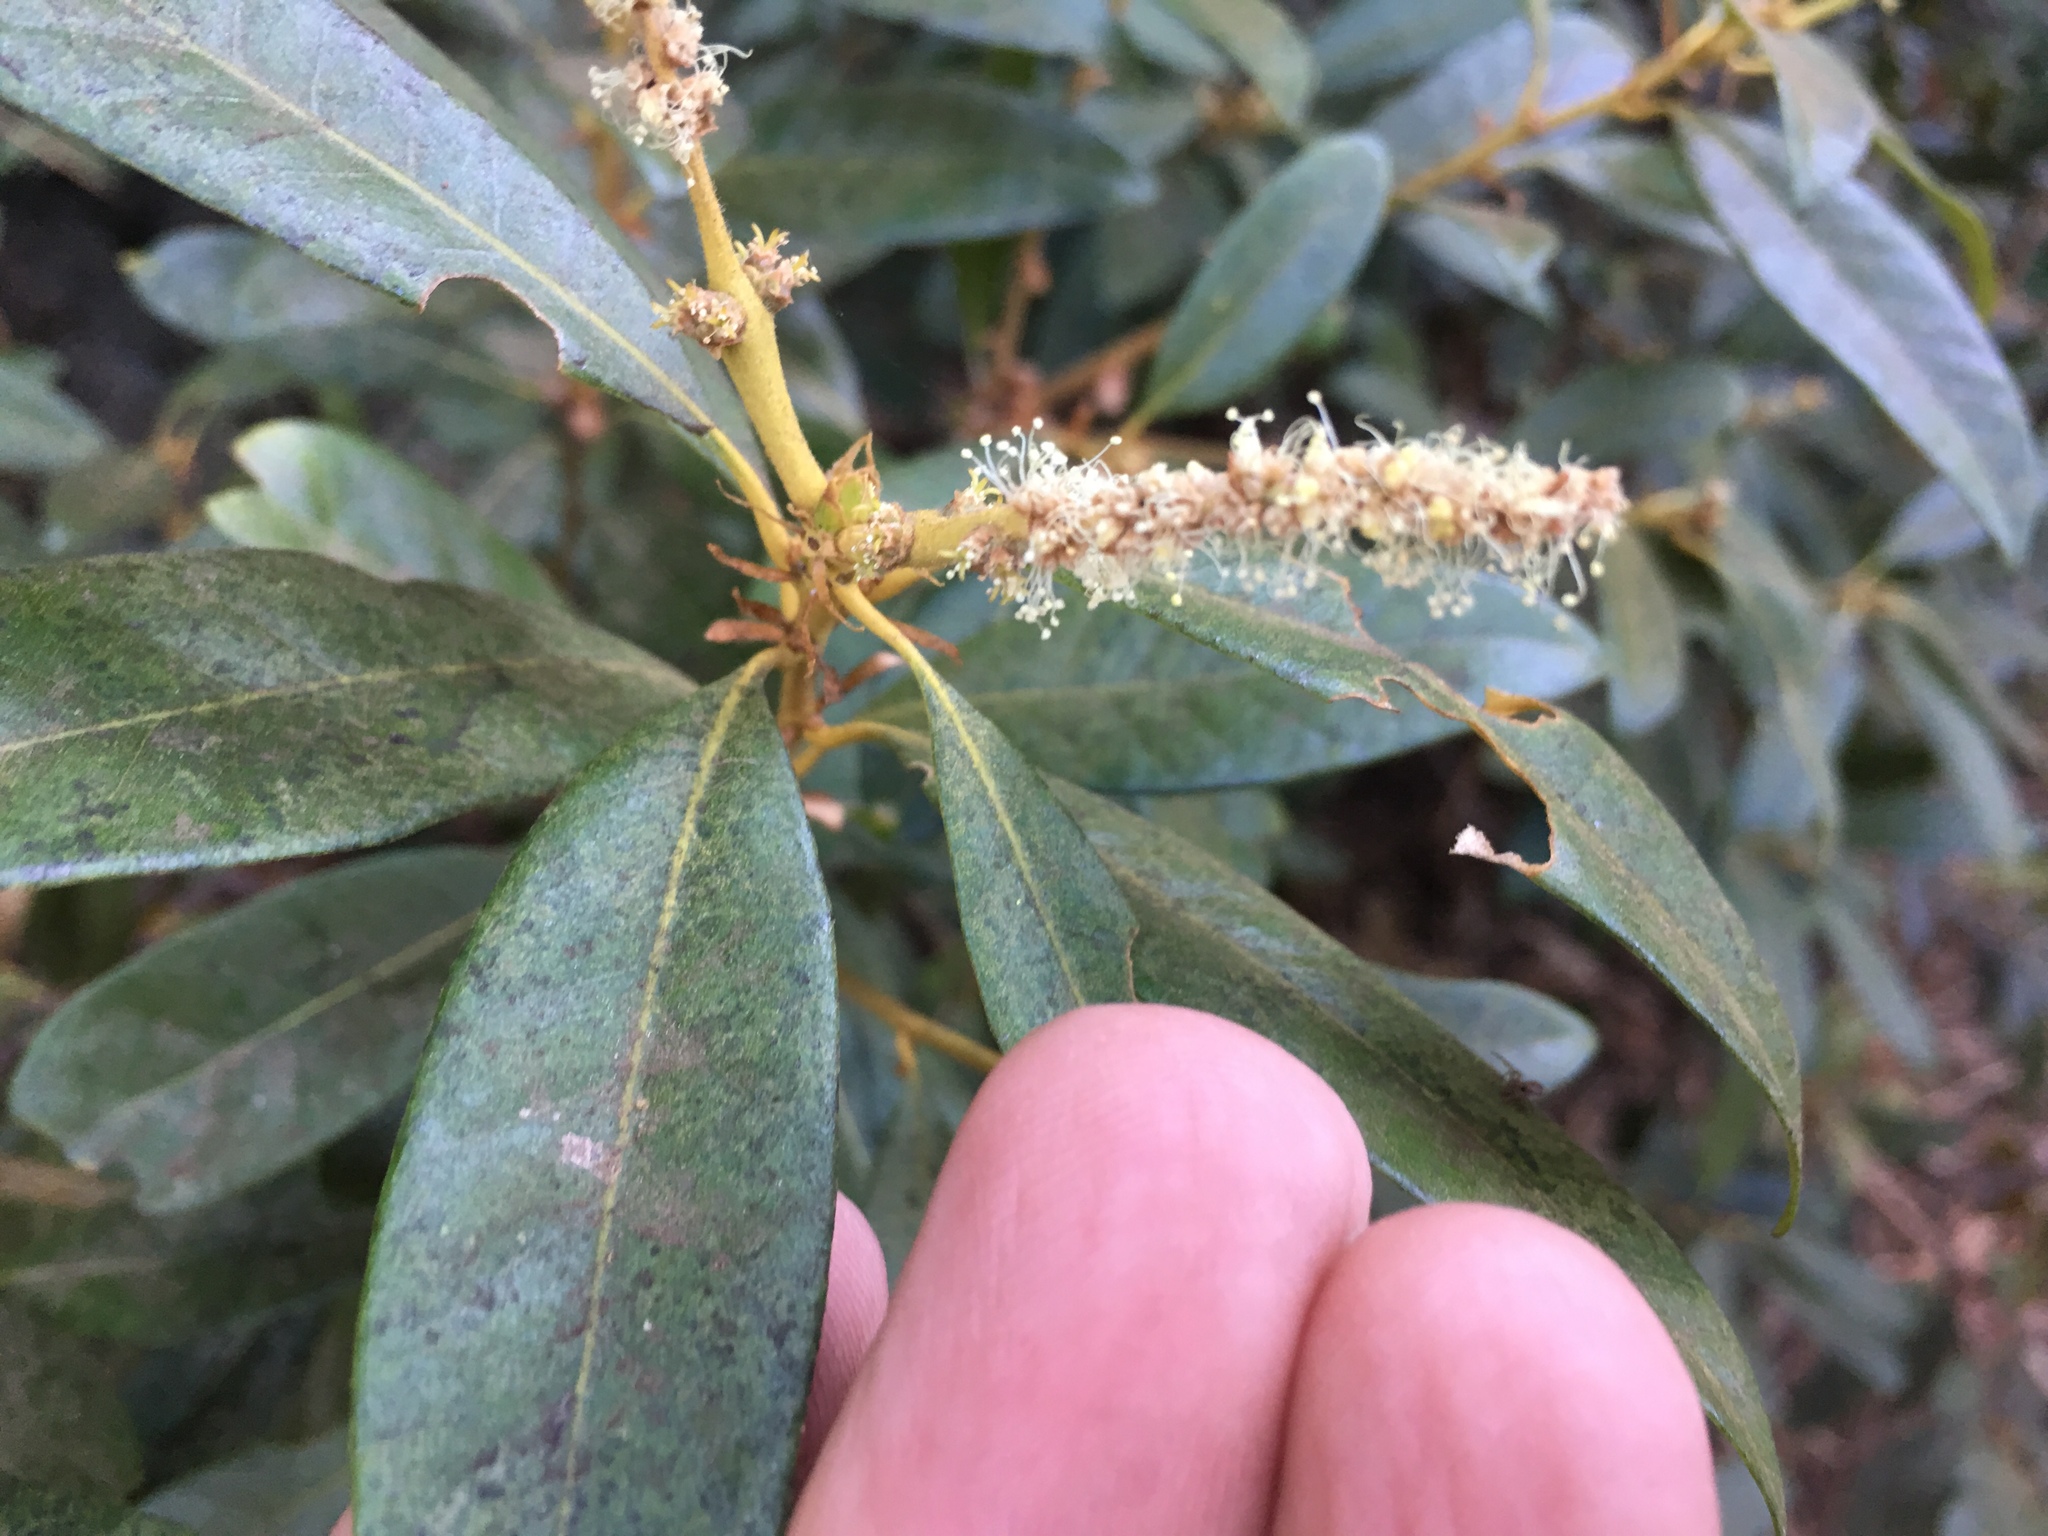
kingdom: Plantae
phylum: Tracheophyta
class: Magnoliopsida
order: Fagales
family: Fagaceae
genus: Chrysolepis
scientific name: Chrysolepis chrysophylla
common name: Giant chinquapin
